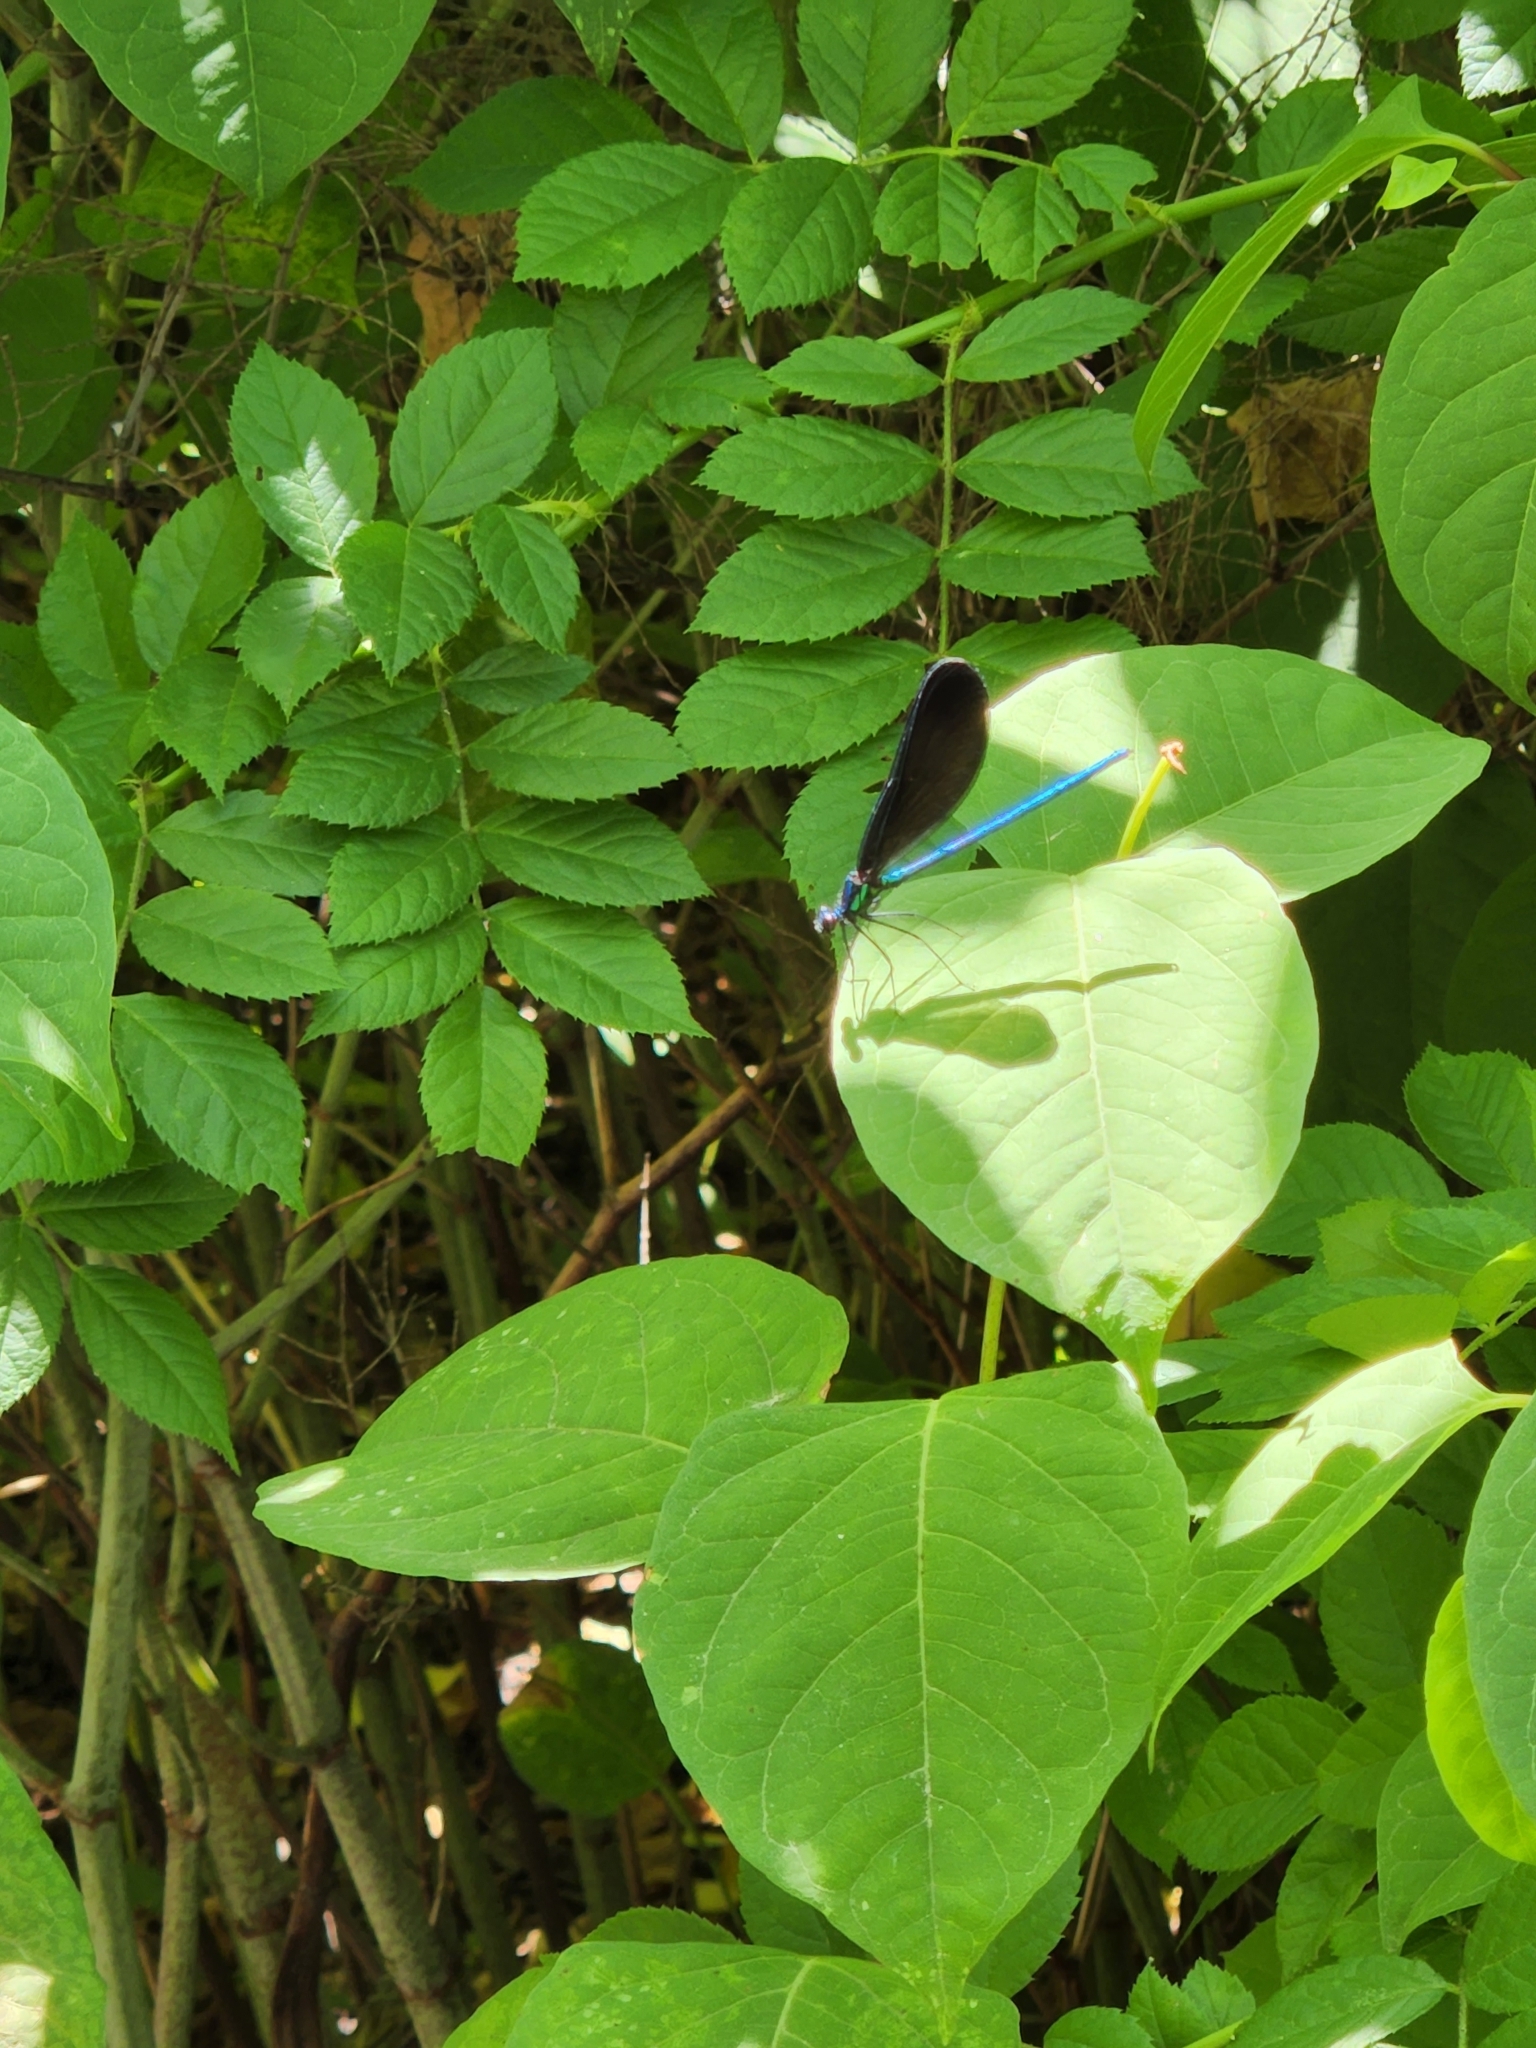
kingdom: Animalia
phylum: Arthropoda
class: Insecta
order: Odonata
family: Calopterygidae
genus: Calopteryx
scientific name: Calopteryx maculata
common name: Ebony jewelwing
